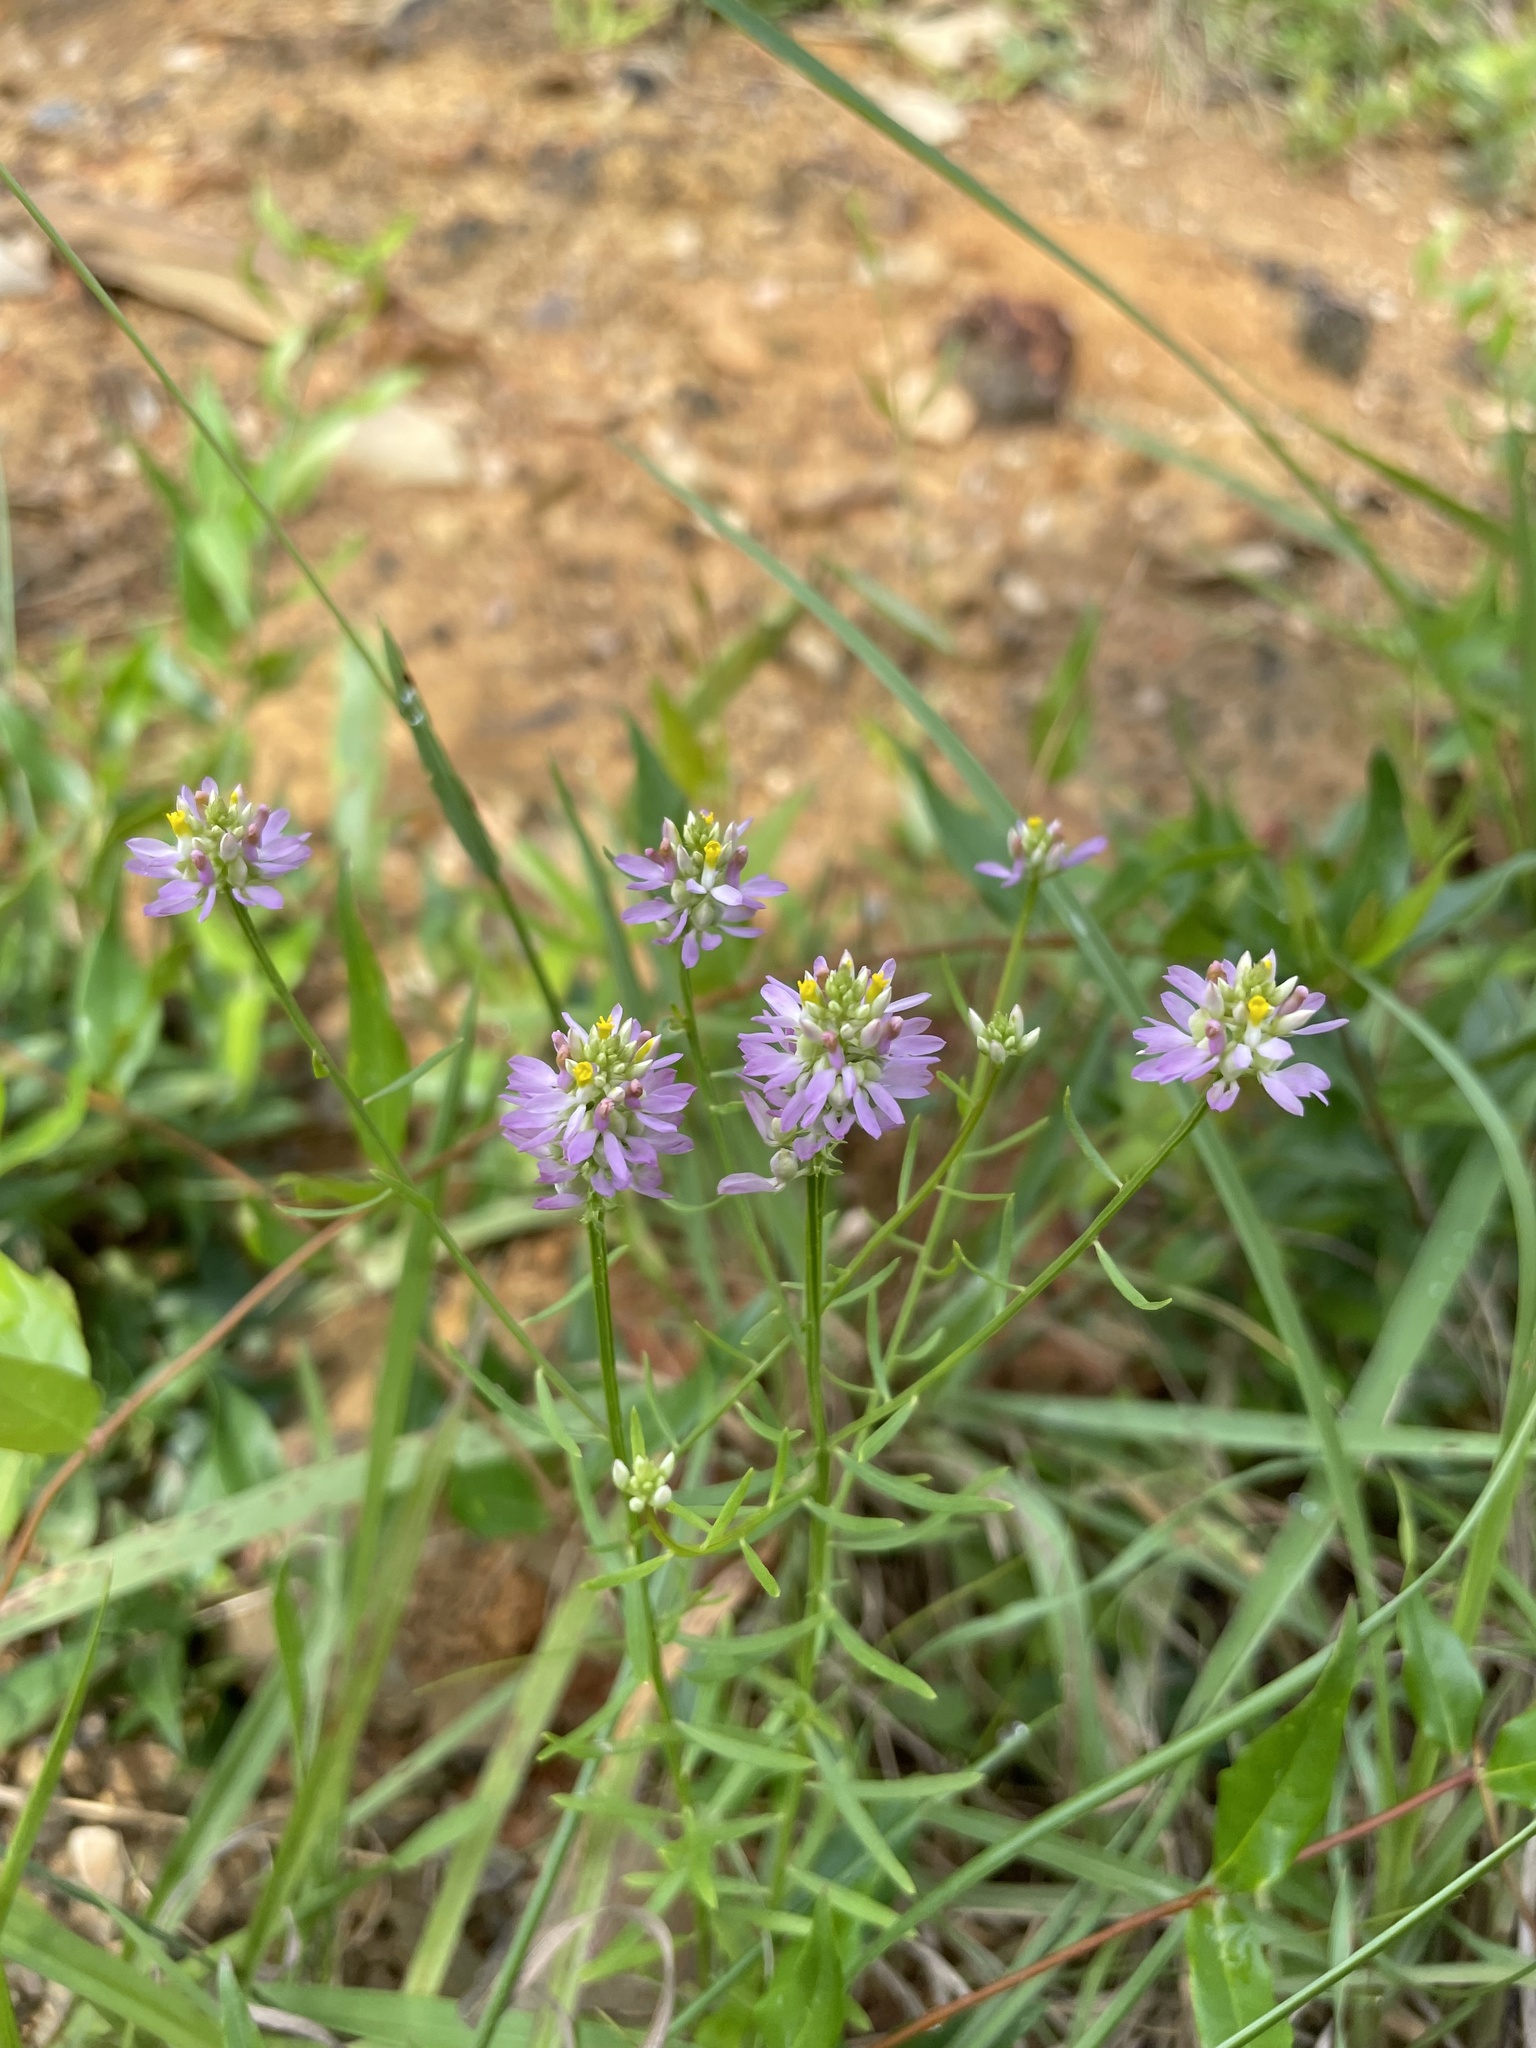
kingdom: Plantae
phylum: Tracheophyta
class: Magnoliopsida
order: Fabales
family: Polygalaceae
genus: Polygala
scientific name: Polygala curtissii
